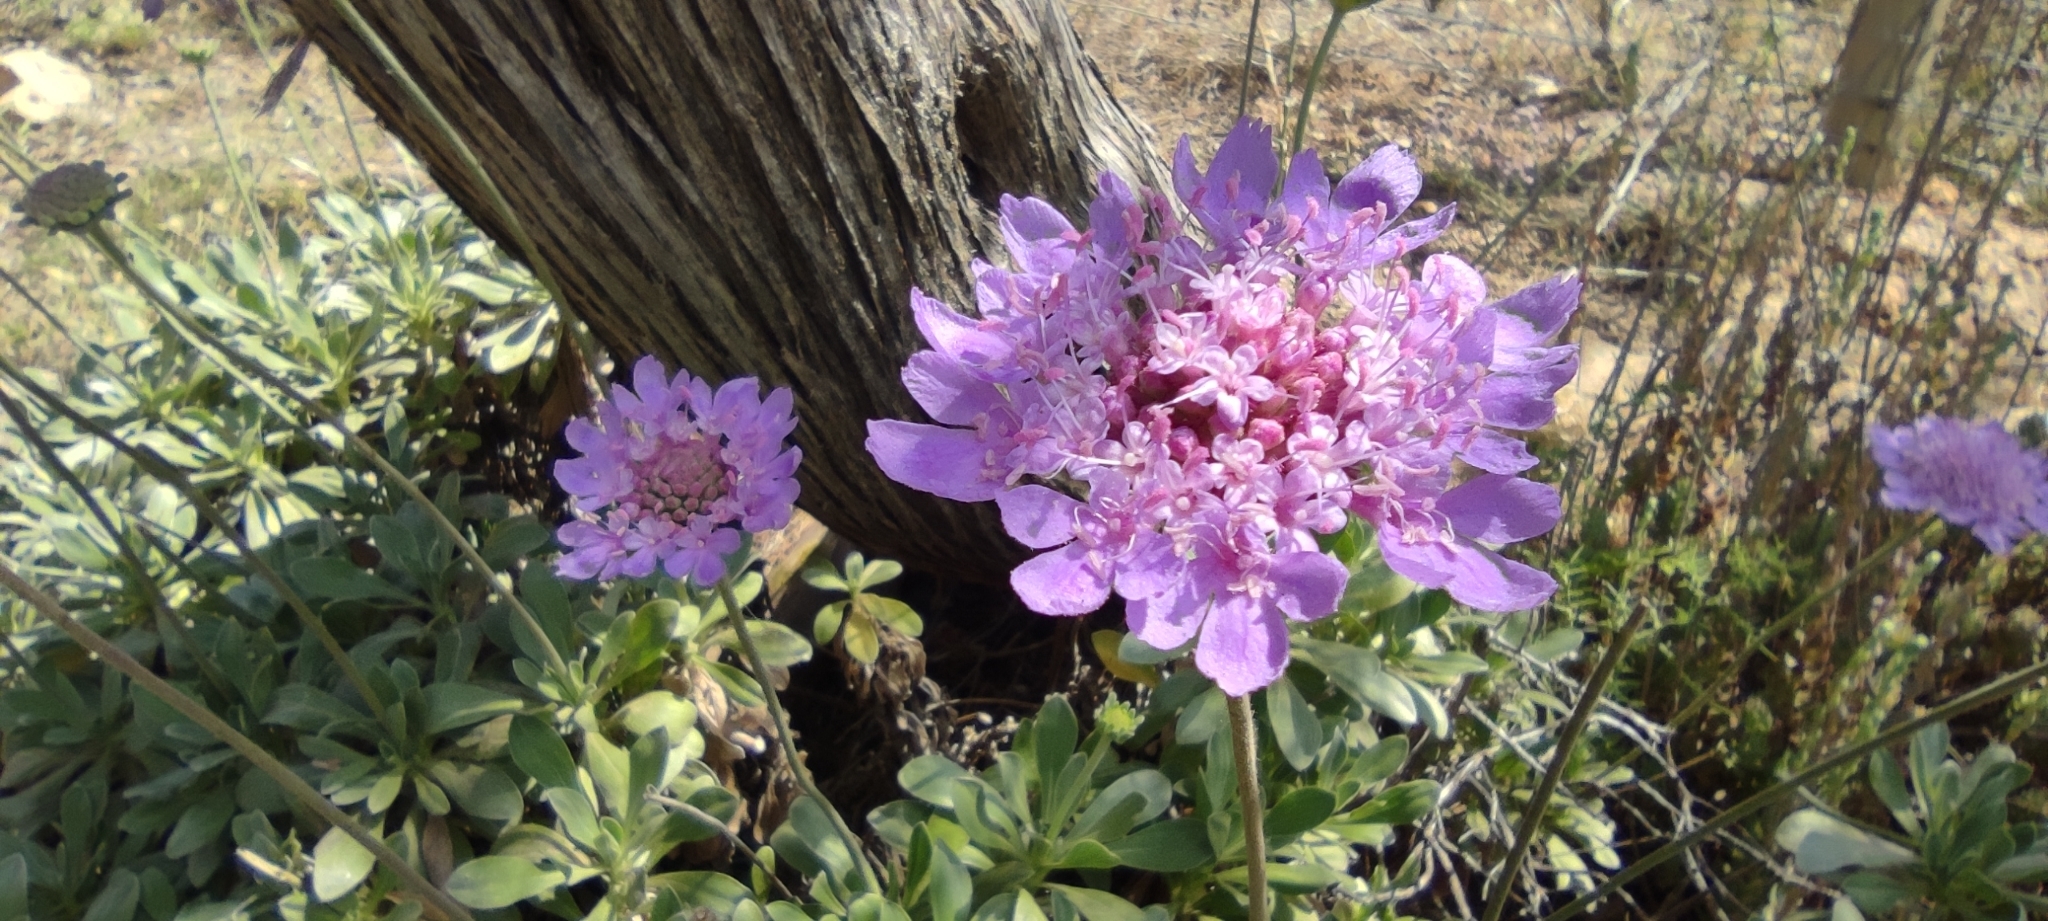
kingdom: Plantae
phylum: Tracheophyta
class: Magnoliopsida
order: Dipsacales
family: Caprifoliaceae
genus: Lomelosia
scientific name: Lomelosia cretica
